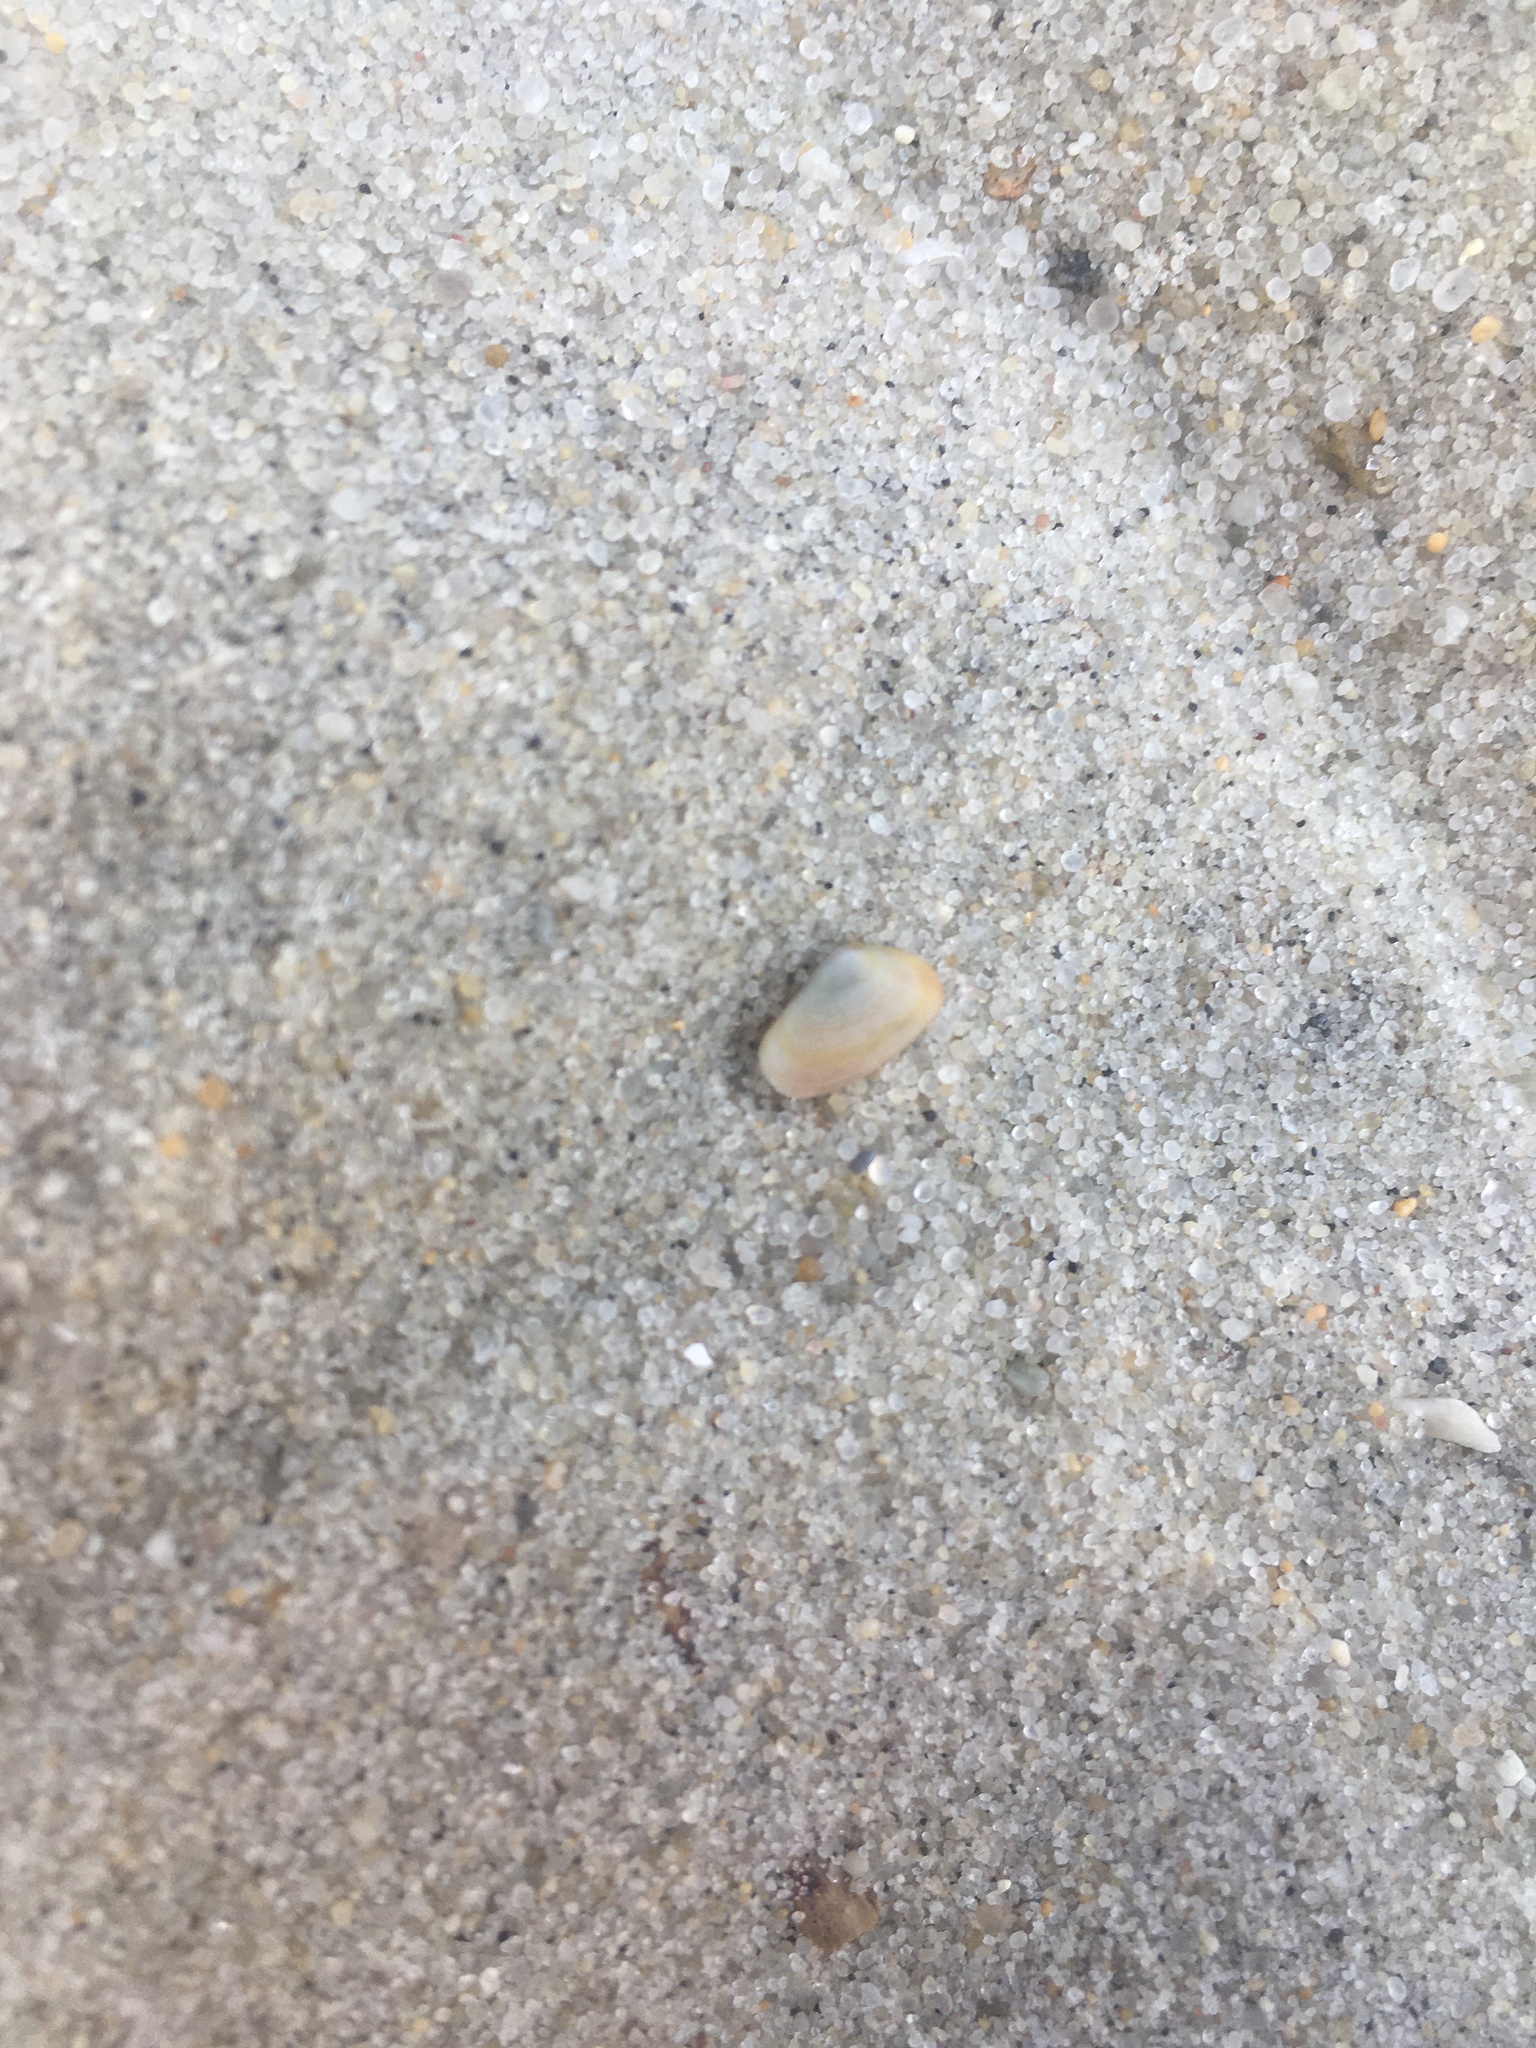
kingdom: Animalia
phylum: Mollusca
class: Bivalvia
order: Cardiida
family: Donacidae
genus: Donax
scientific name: Donax fossor
